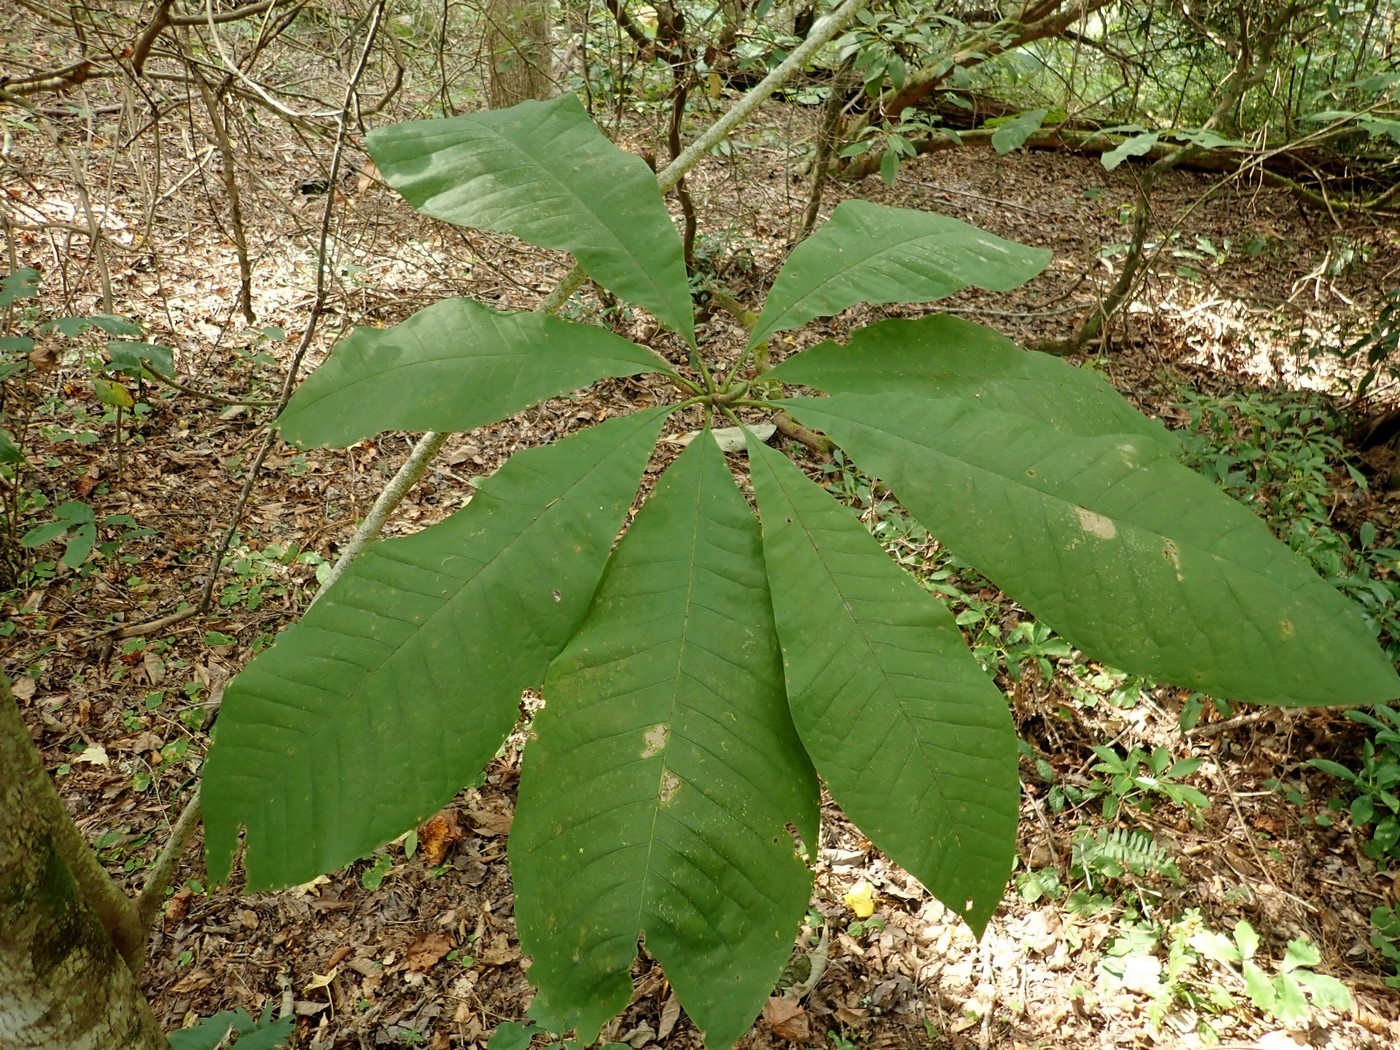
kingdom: Plantae
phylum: Tracheophyta
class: Magnoliopsida
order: Magnoliales
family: Magnoliaceae
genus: Magnolia
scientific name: Magnolia tripetala
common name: Umbrella magnolia
